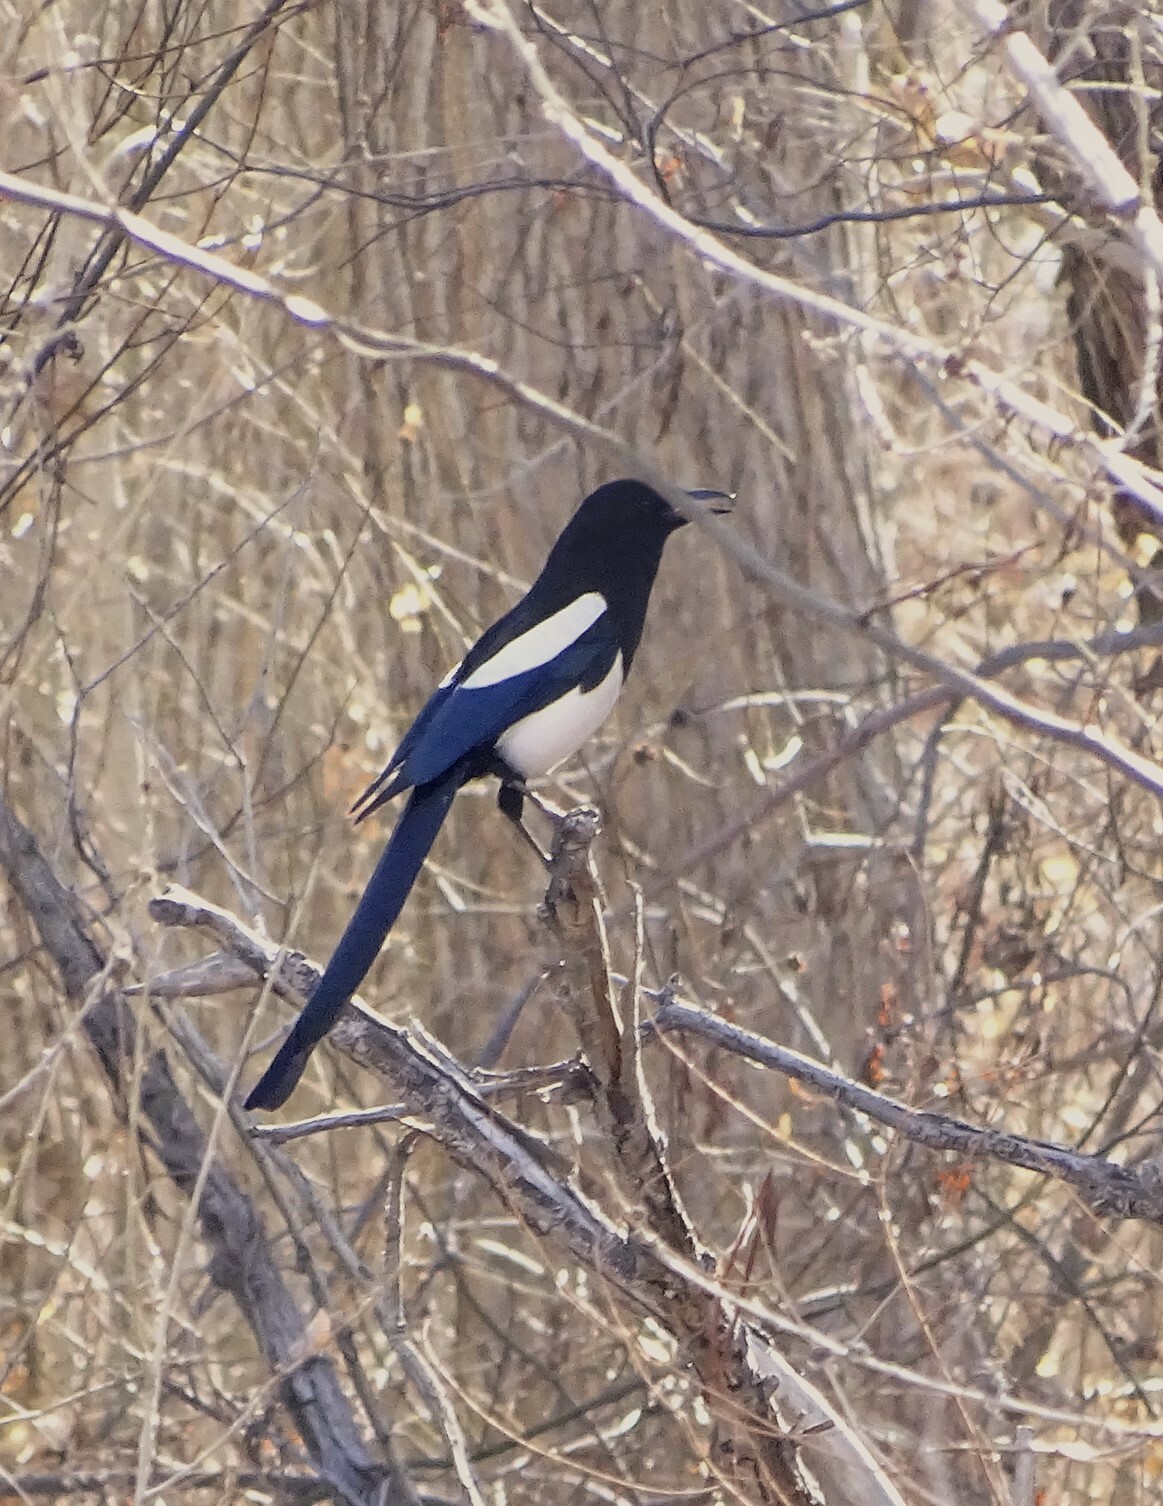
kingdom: Animalia
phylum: Chordata
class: Aves
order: Passeriformes
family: Corvidae
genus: Pica
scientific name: Pica hudsonia
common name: Black-billed magpie
